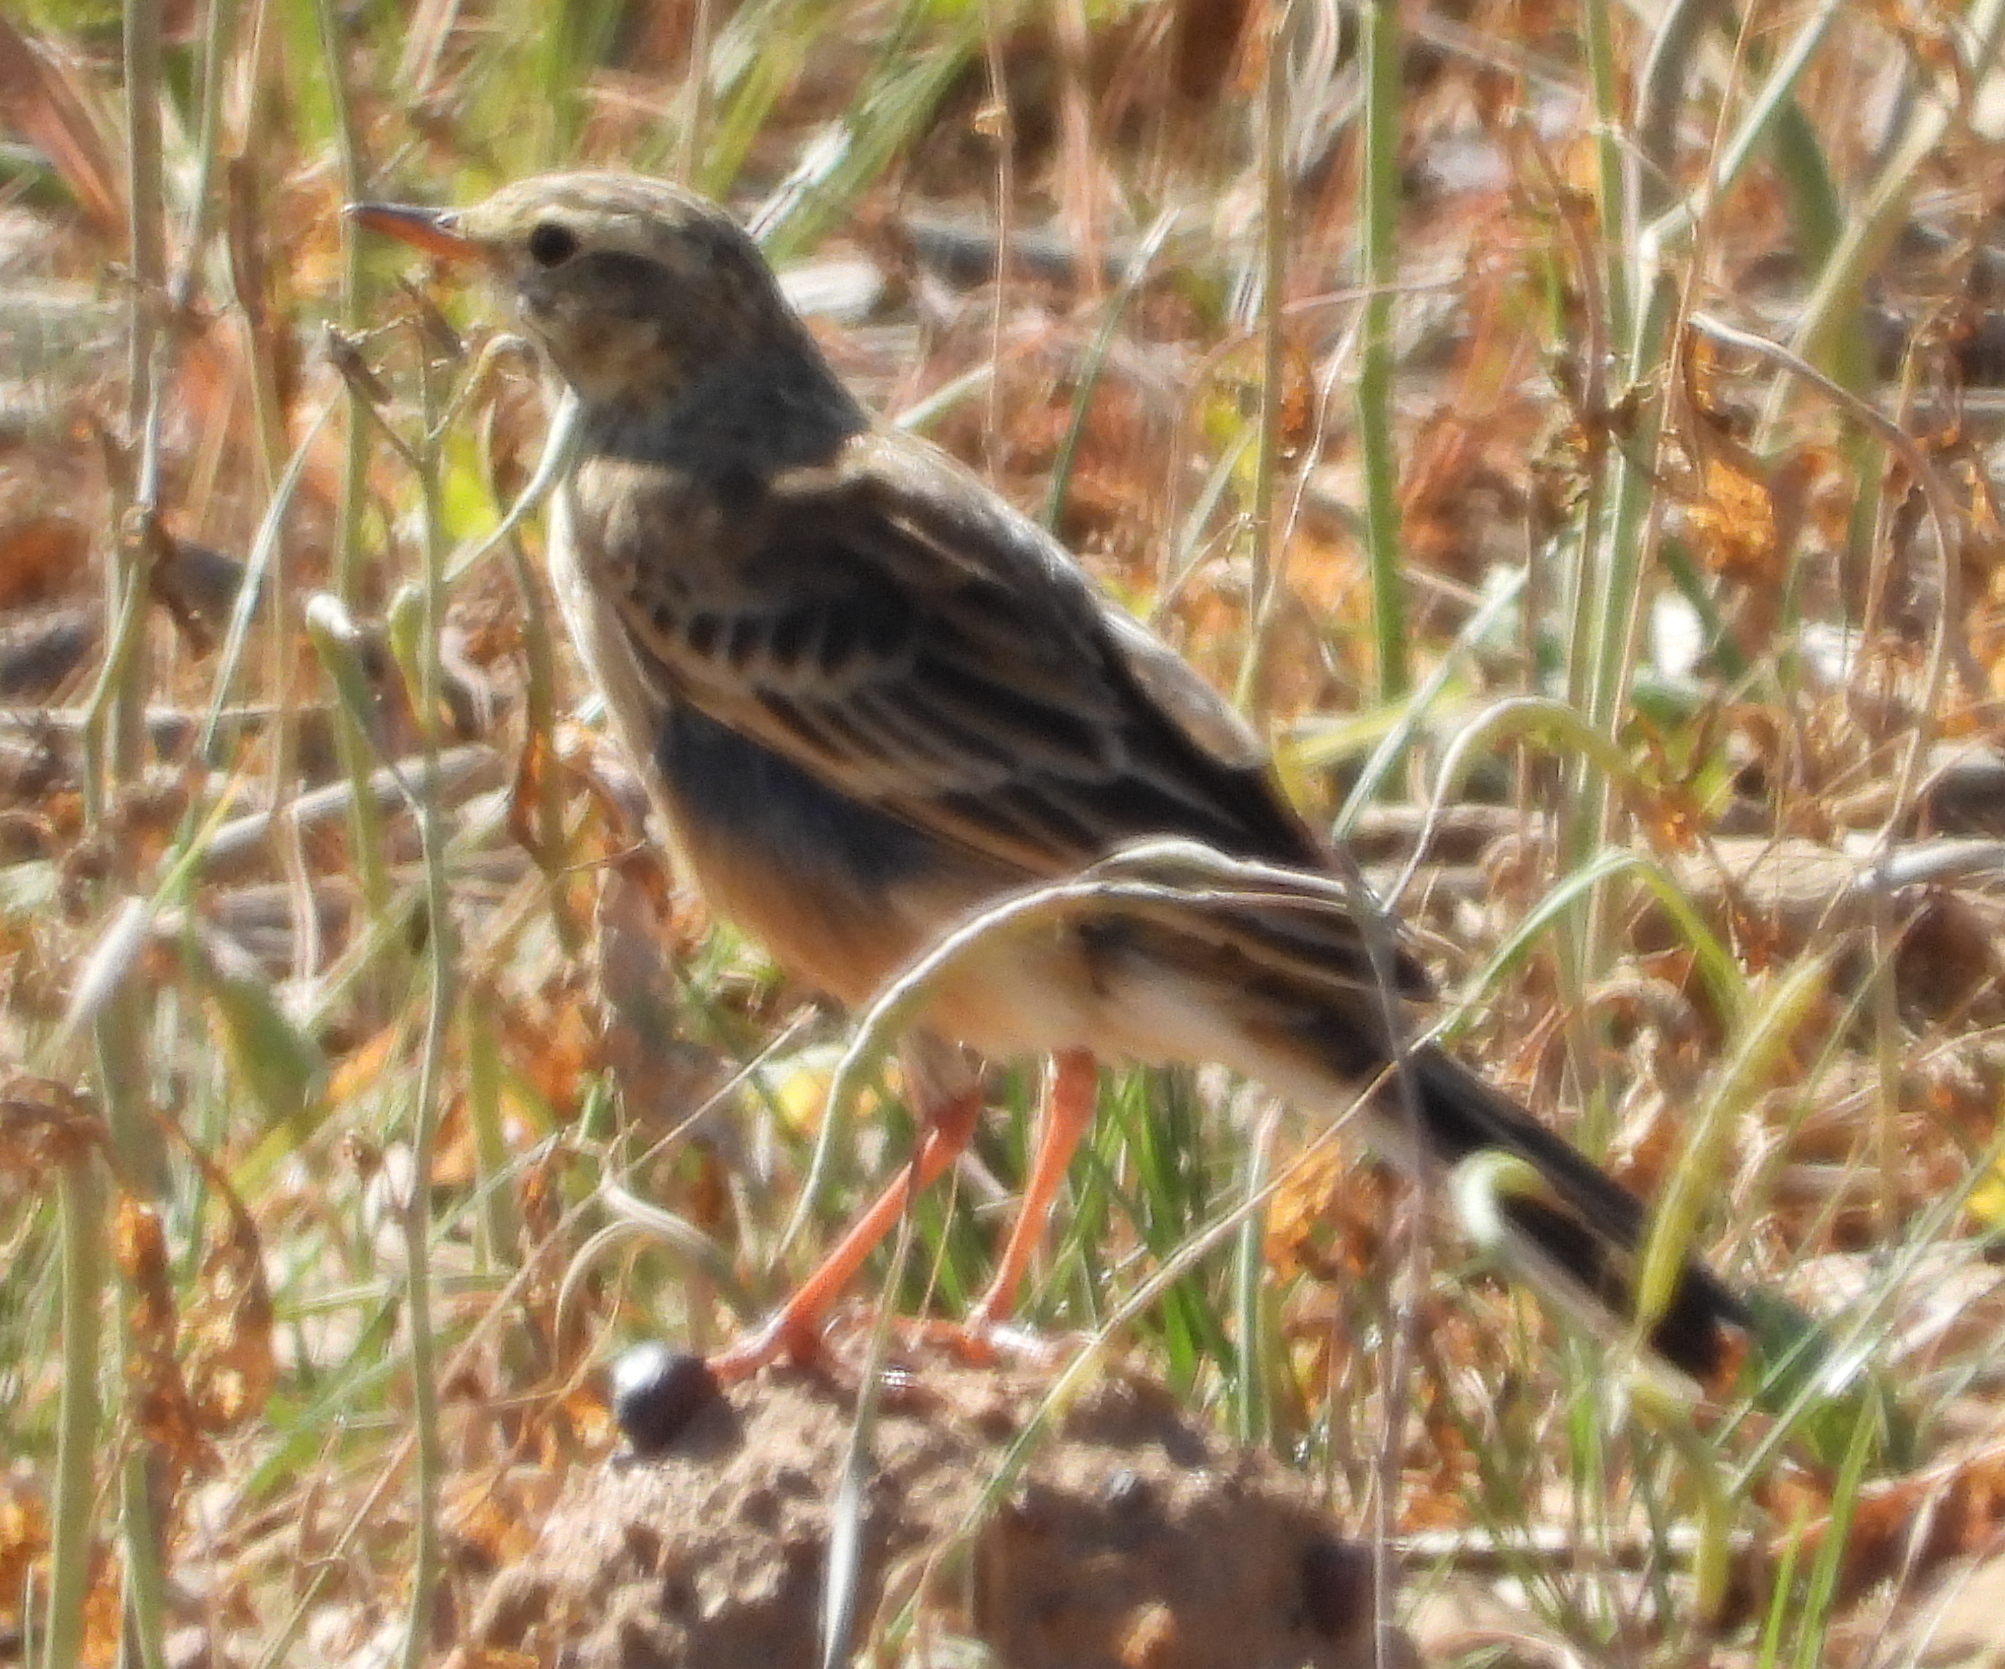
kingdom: Animalia
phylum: Chordata
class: Aves
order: Passeriformes
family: Motacillidae
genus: Anthus
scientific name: Anthus cinnamomeus
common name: African pipit
